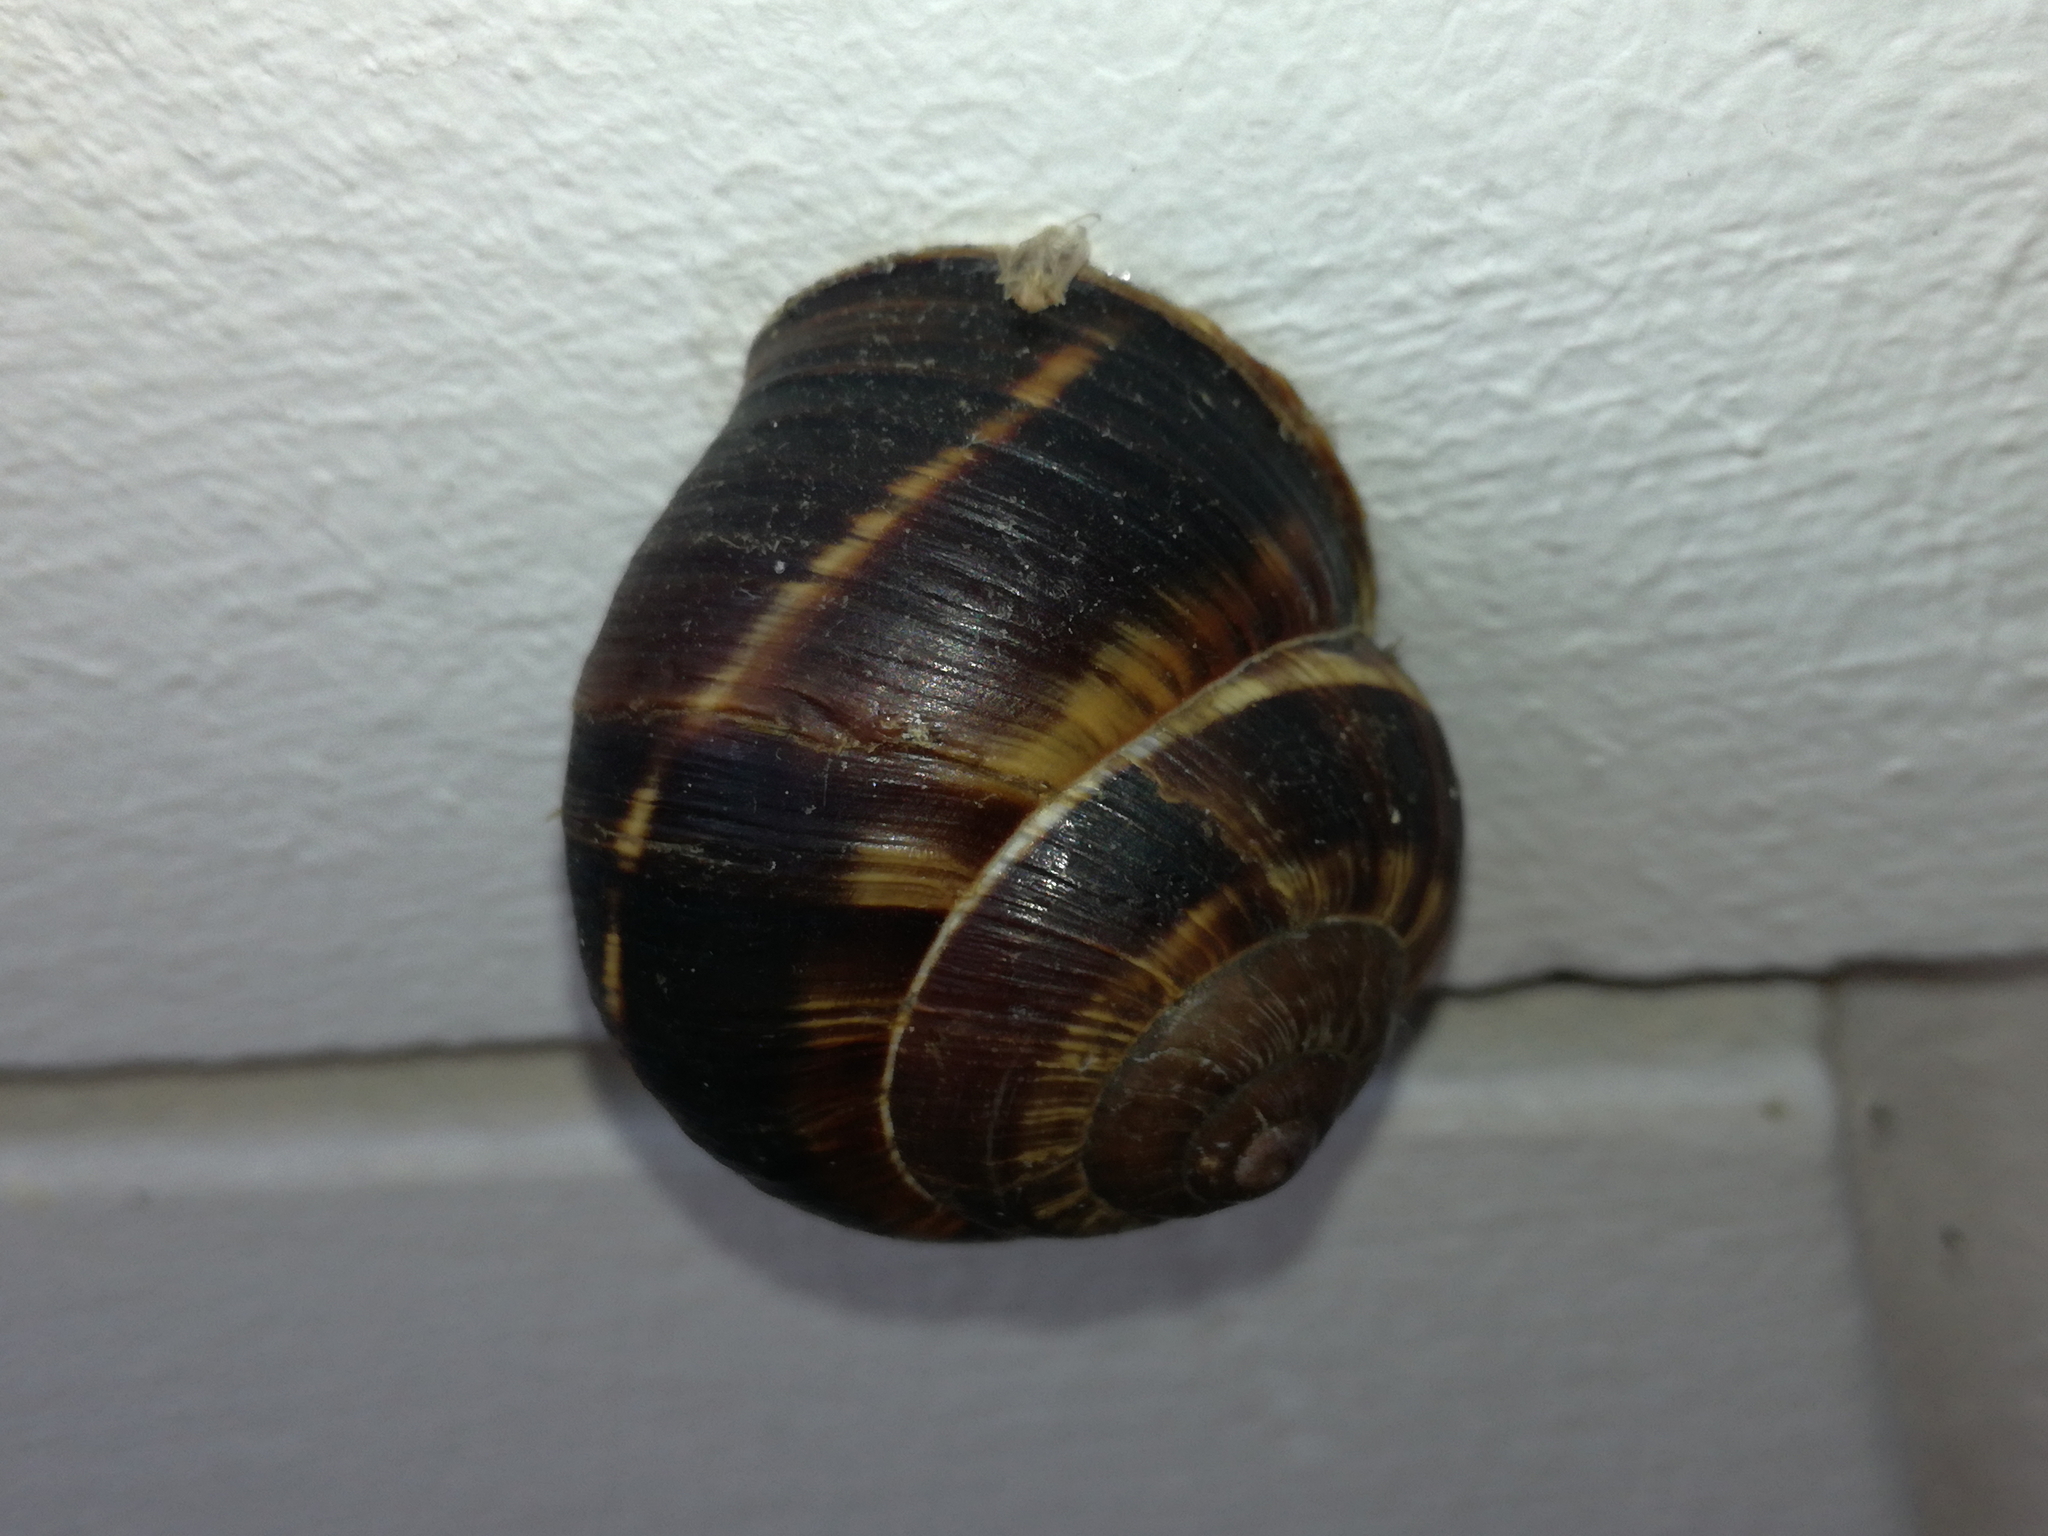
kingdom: Animalia
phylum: Mollusca
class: Gastropoda
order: Stylommatophora
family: Helicidae
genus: Helix
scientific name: Helix lucorum
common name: Turkish snail
